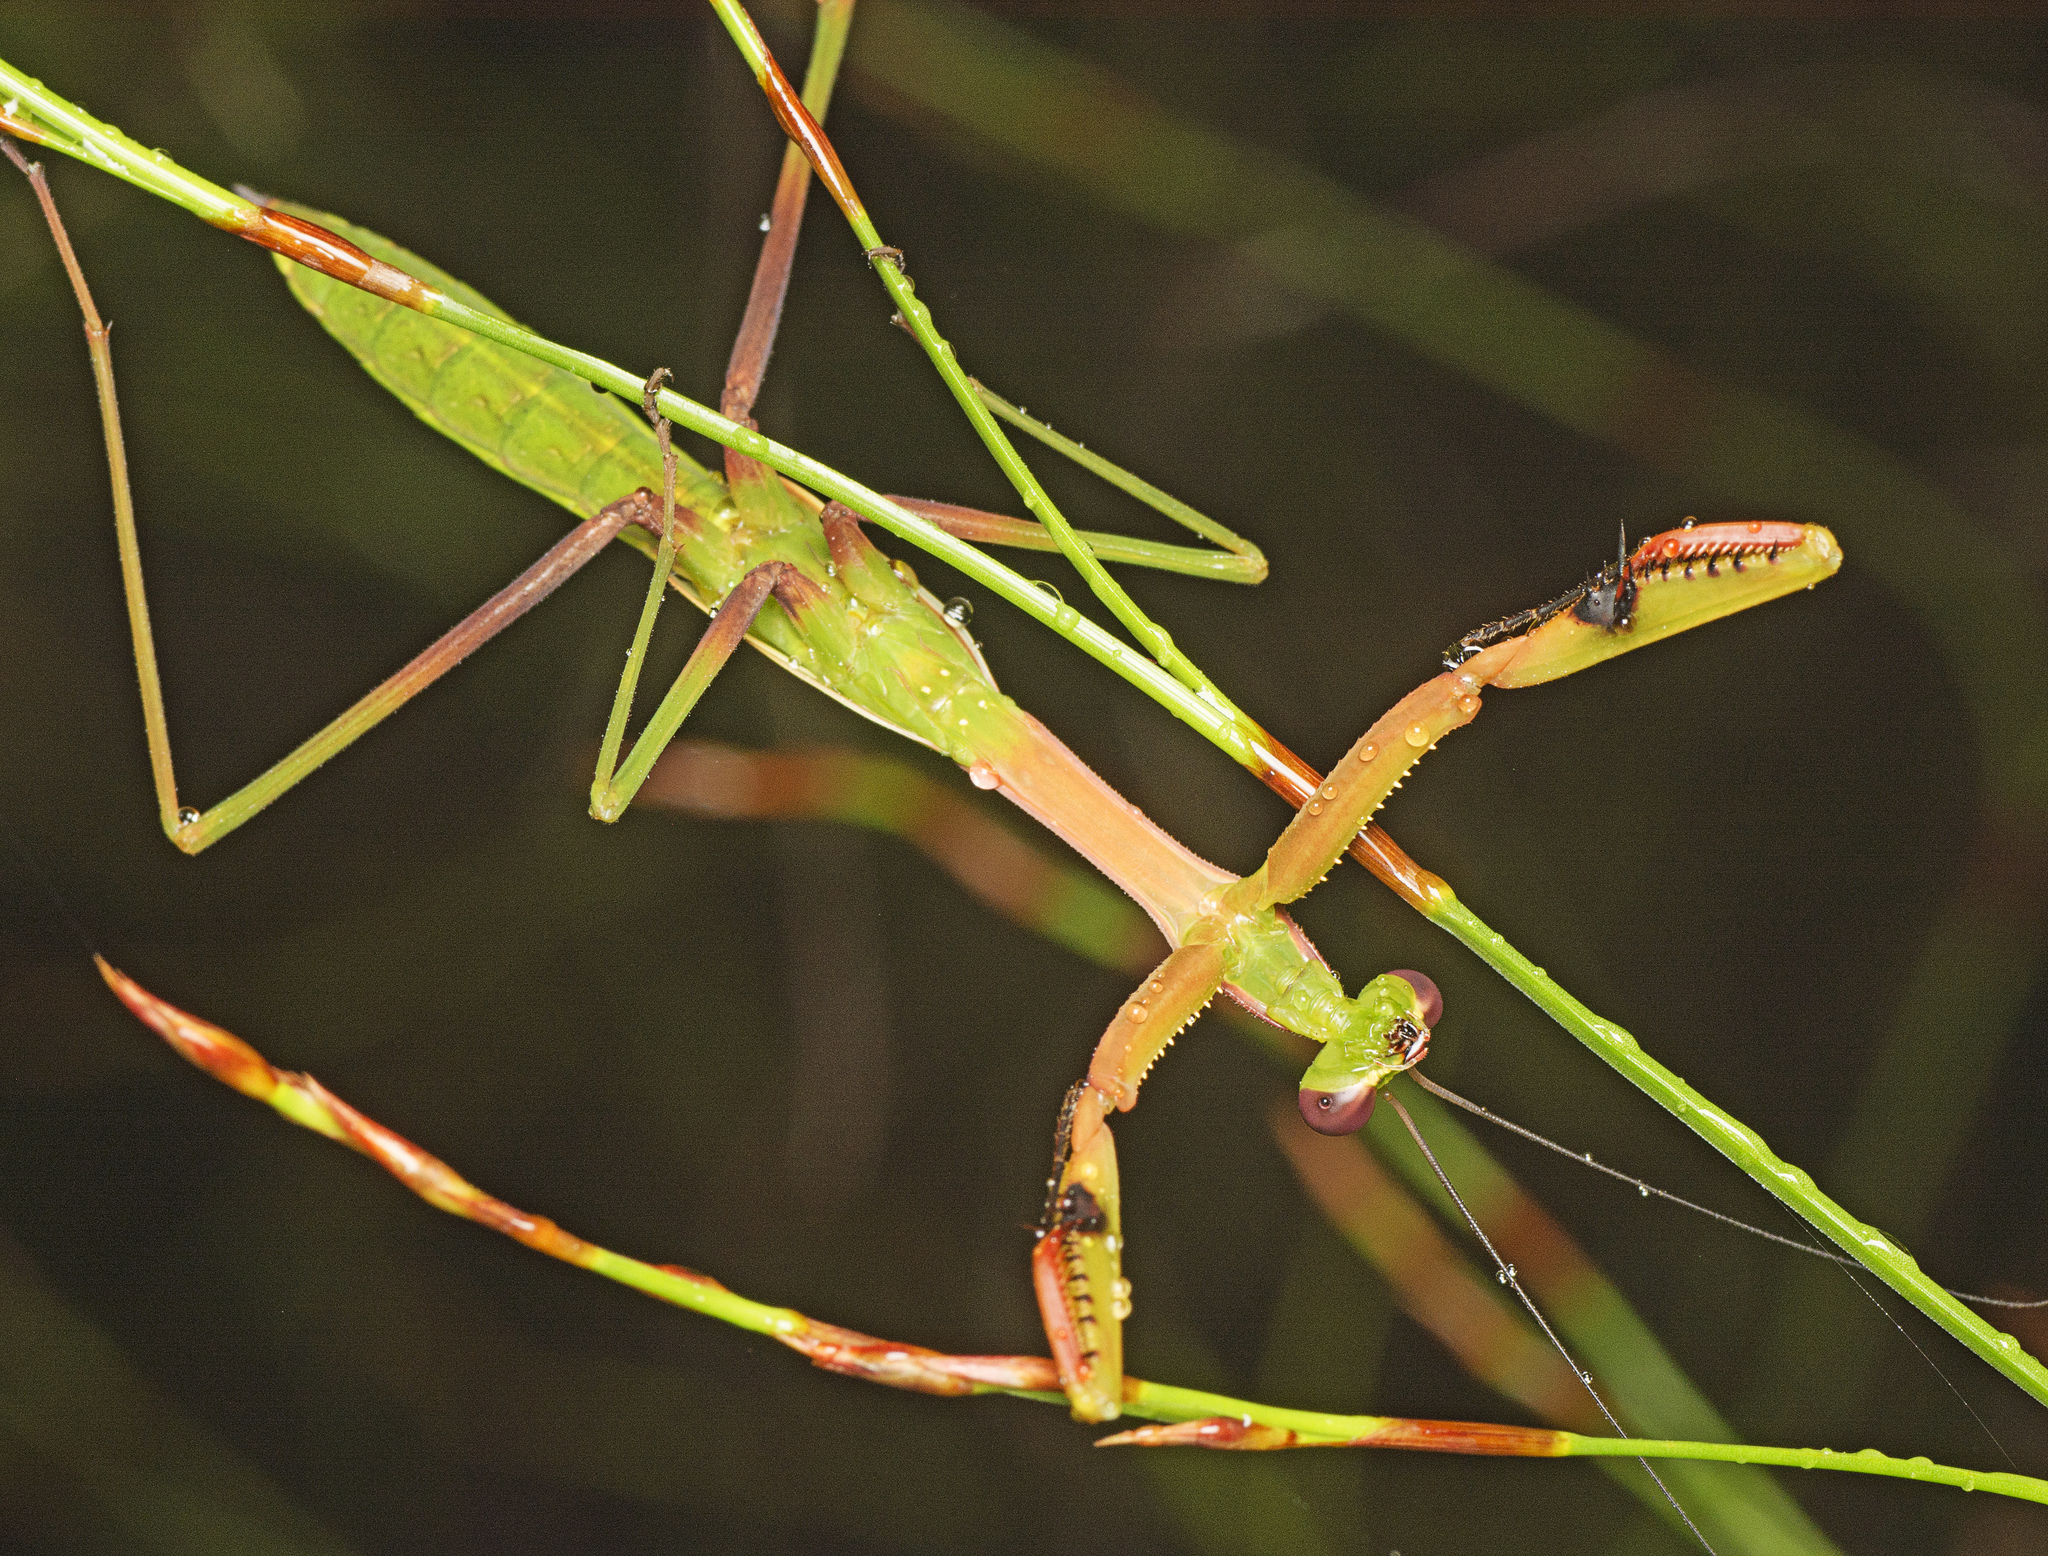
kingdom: Animalia
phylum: Arthropoda
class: Insecta
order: Mantodea
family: Mantidae
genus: Pseudomantis
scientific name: Pseudomantis albofimbriata
